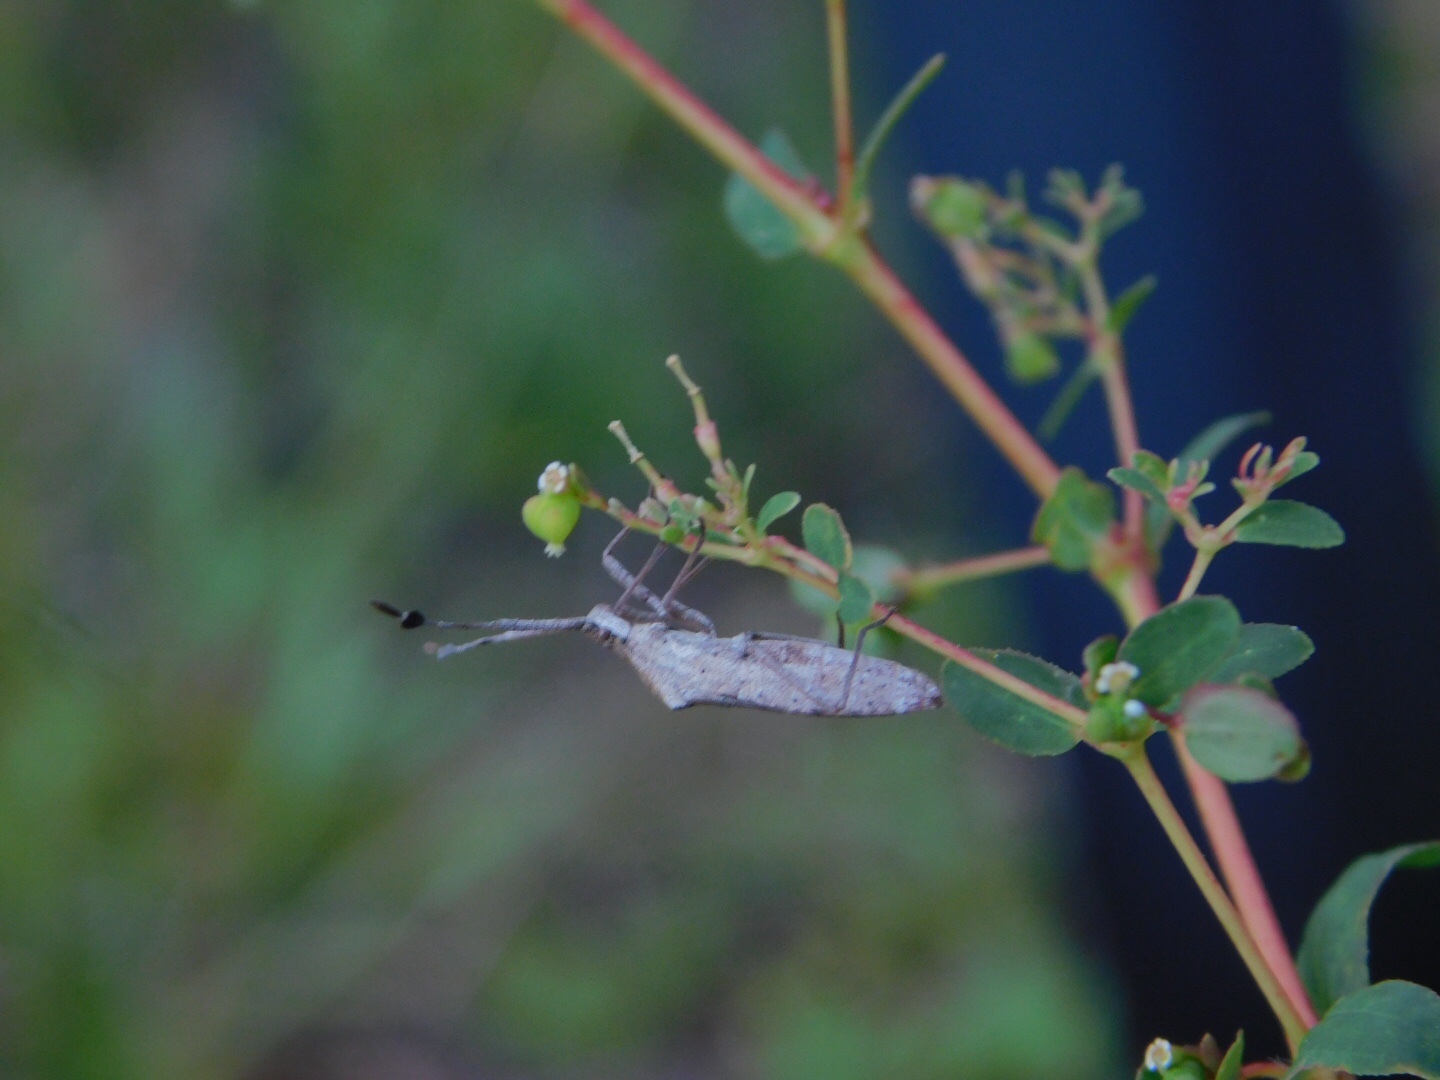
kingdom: Plantae
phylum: Tracheophyta
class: Magnoliopsida
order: Malpighiales
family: Euphorbiaceae
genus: Euphorbia
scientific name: Euphorbia lasiocarpa
